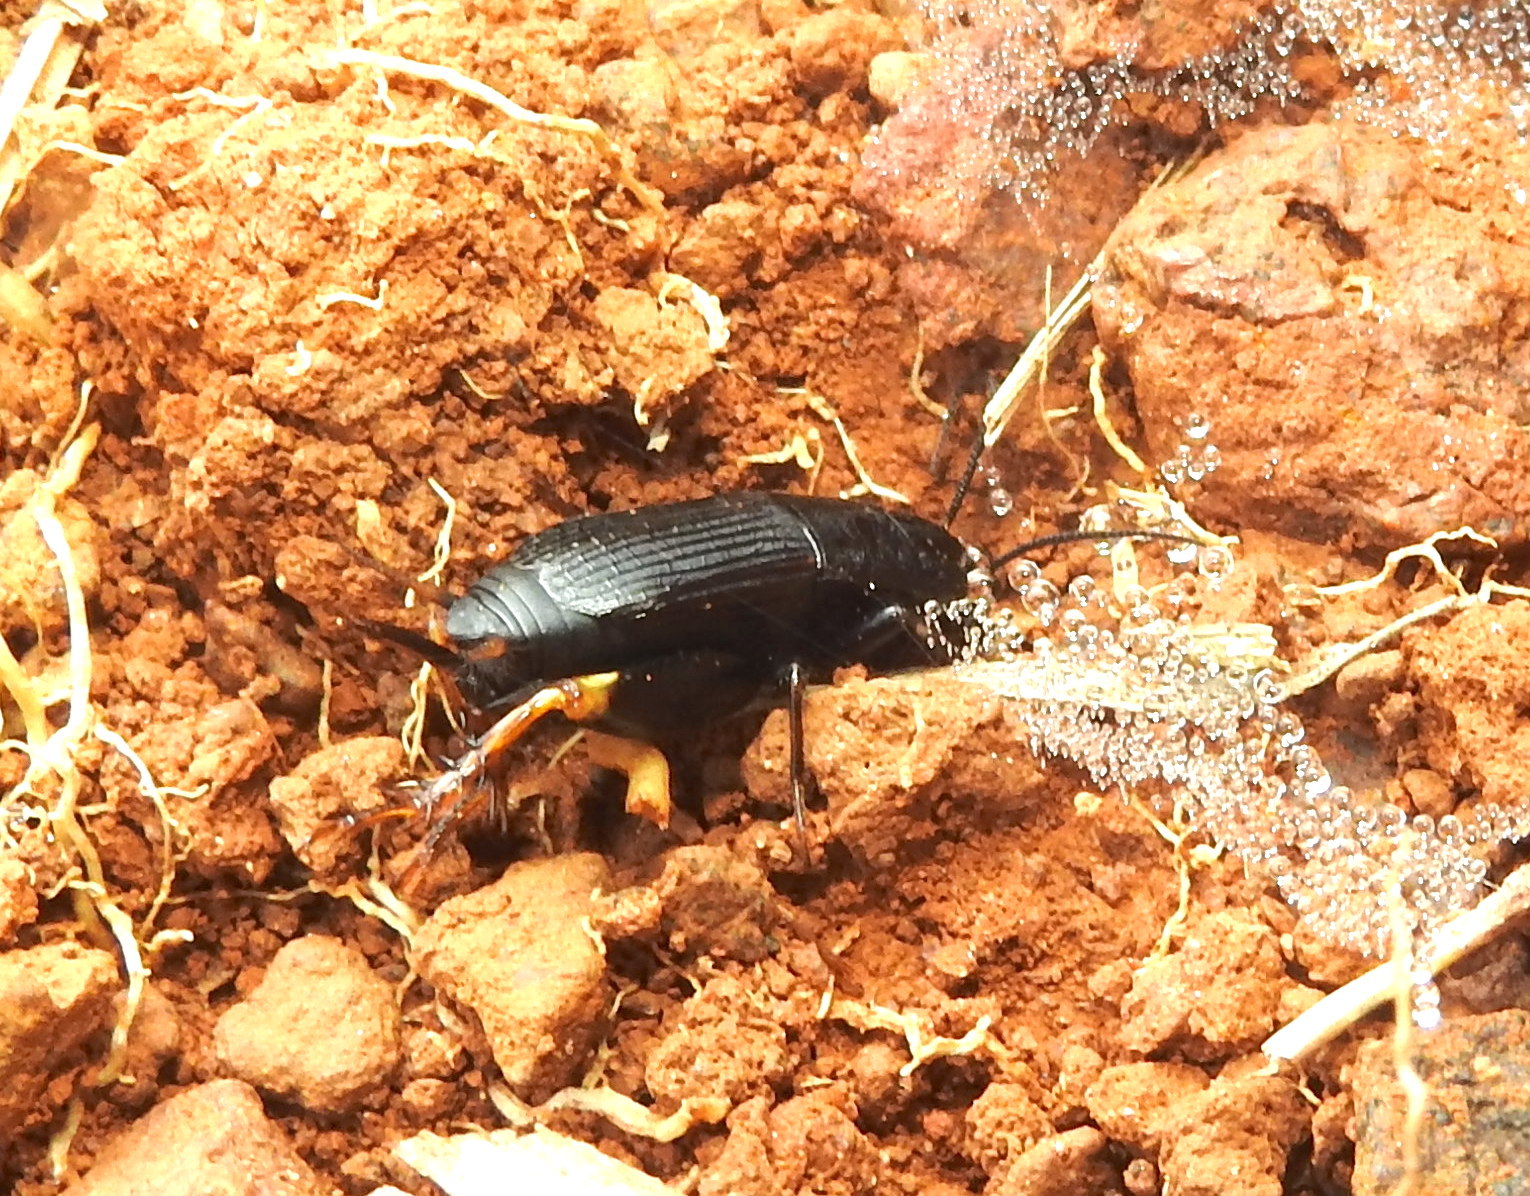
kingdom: Animalia
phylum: Arthropoda
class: Insecta
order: Orthoptera
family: Gryllidae
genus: Acanthoplistus
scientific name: Acanthoplistus birmanus
